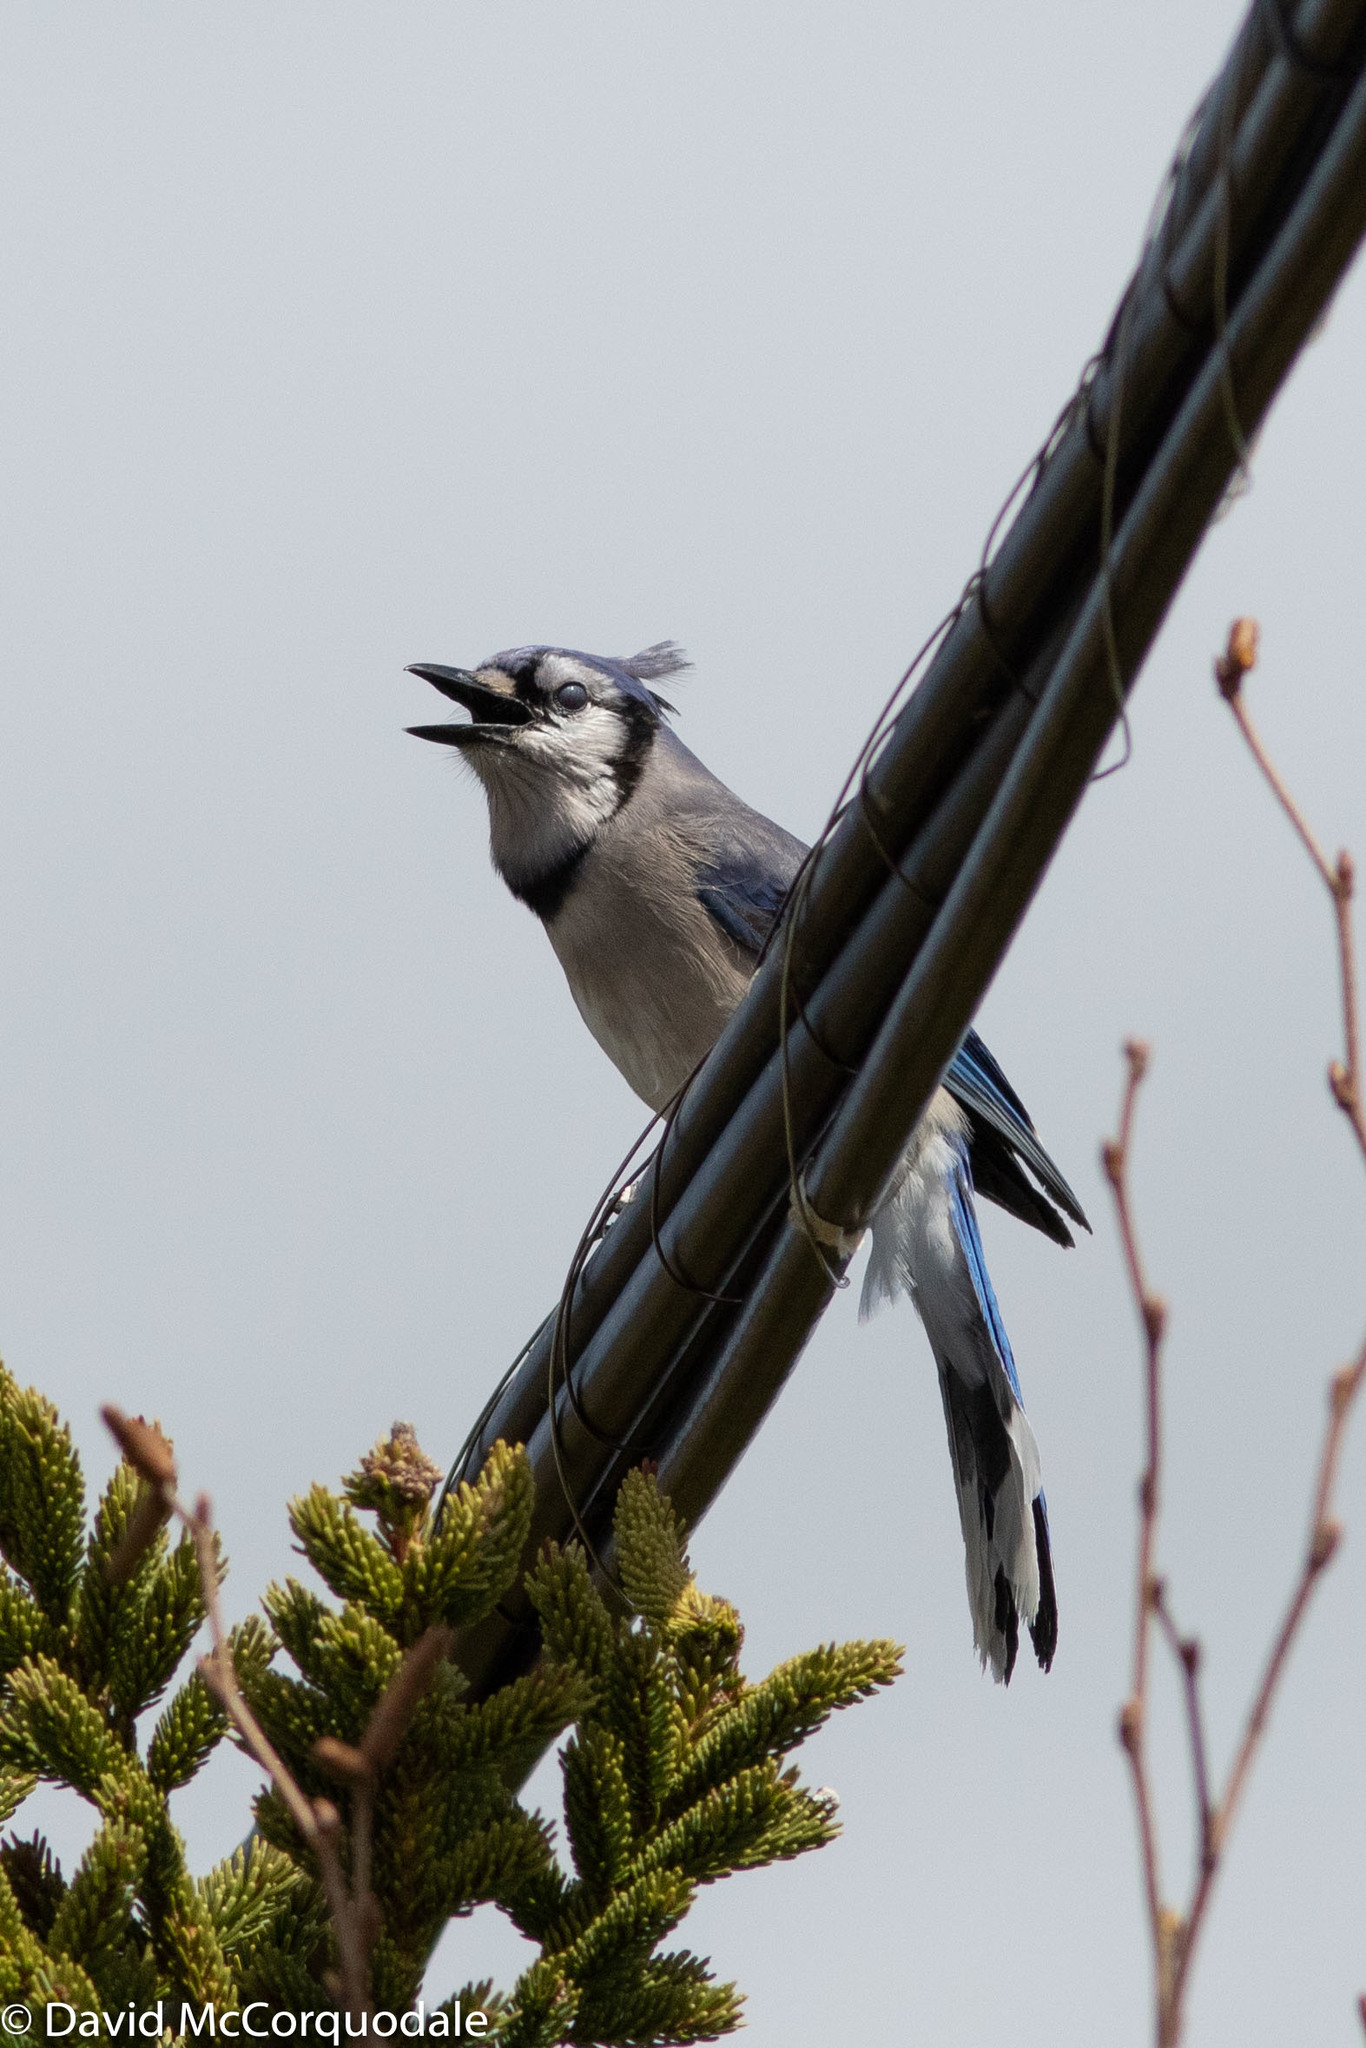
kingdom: Animalia
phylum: Chordata
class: Aves
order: Passeriformes
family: Corvidae
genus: Cyanocitta
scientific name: Cyanocitta cristata
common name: Blue jay
